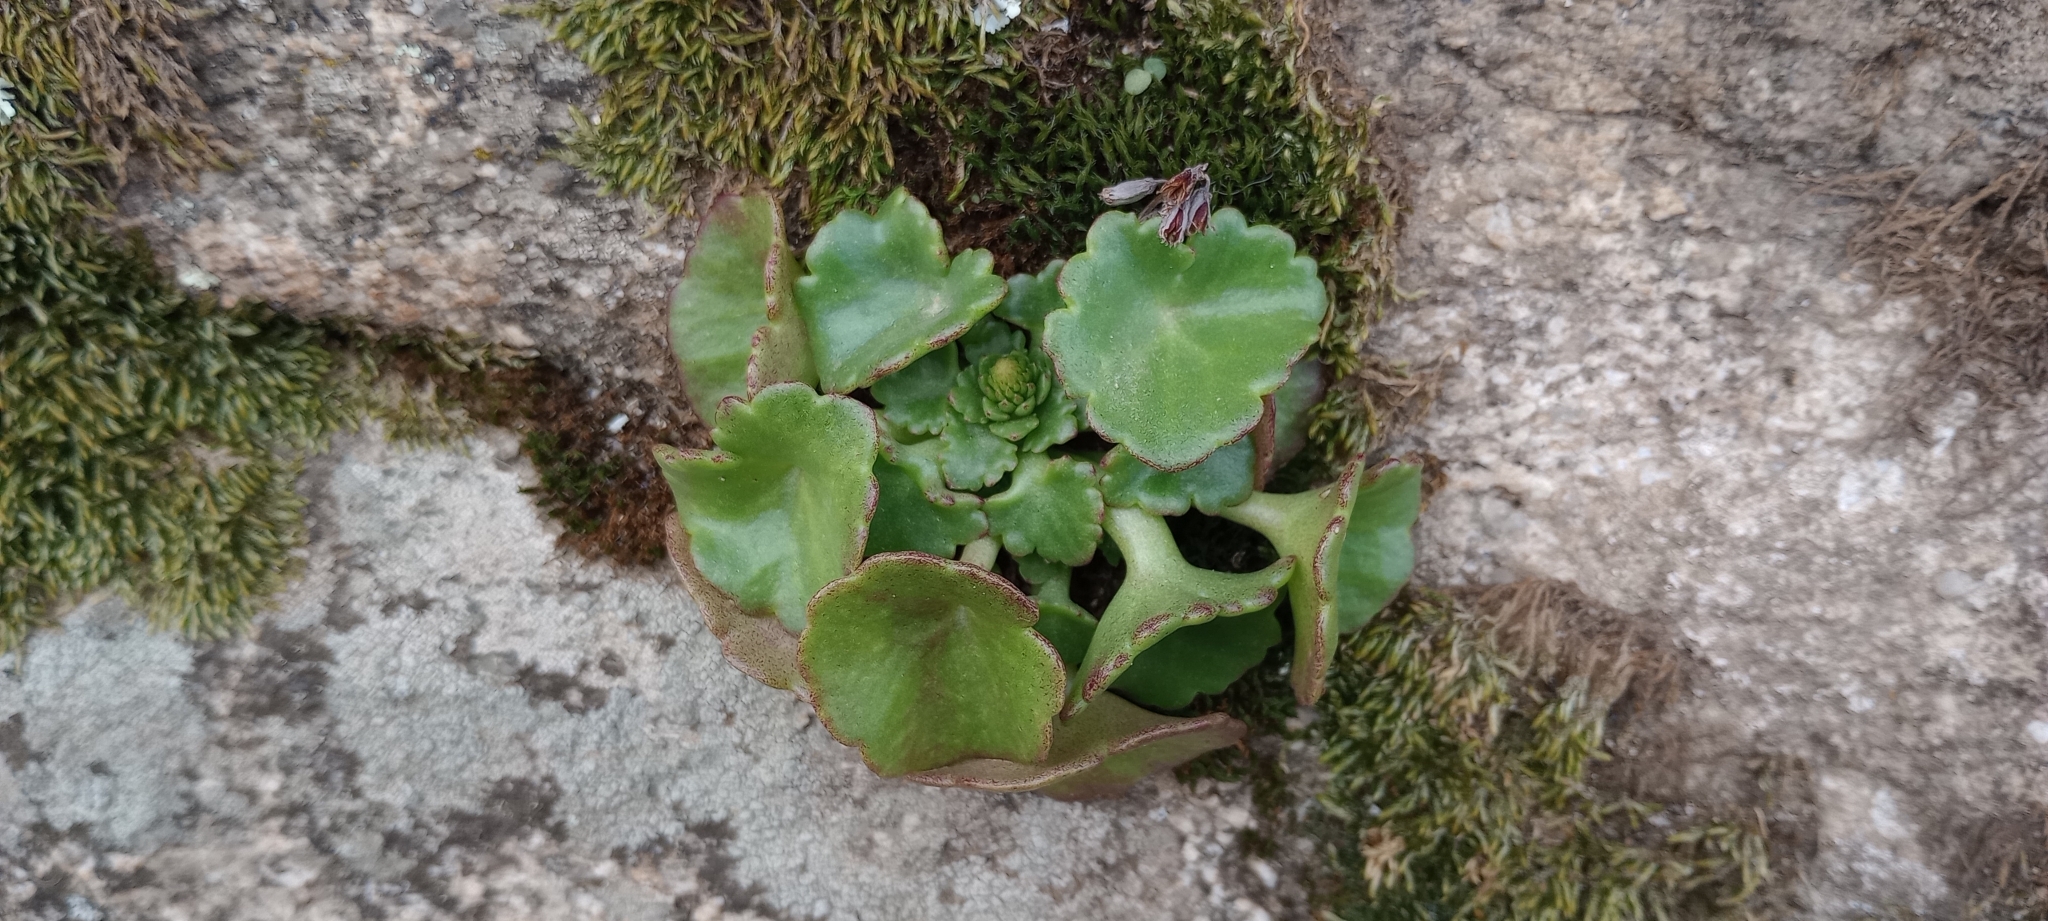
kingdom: Plantae
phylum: Tracheophyta
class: Magnoliopsida
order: Saxifragales
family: Crassulaceae
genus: Umbilicus
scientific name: Umbilicus rupestris
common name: Navelwort
